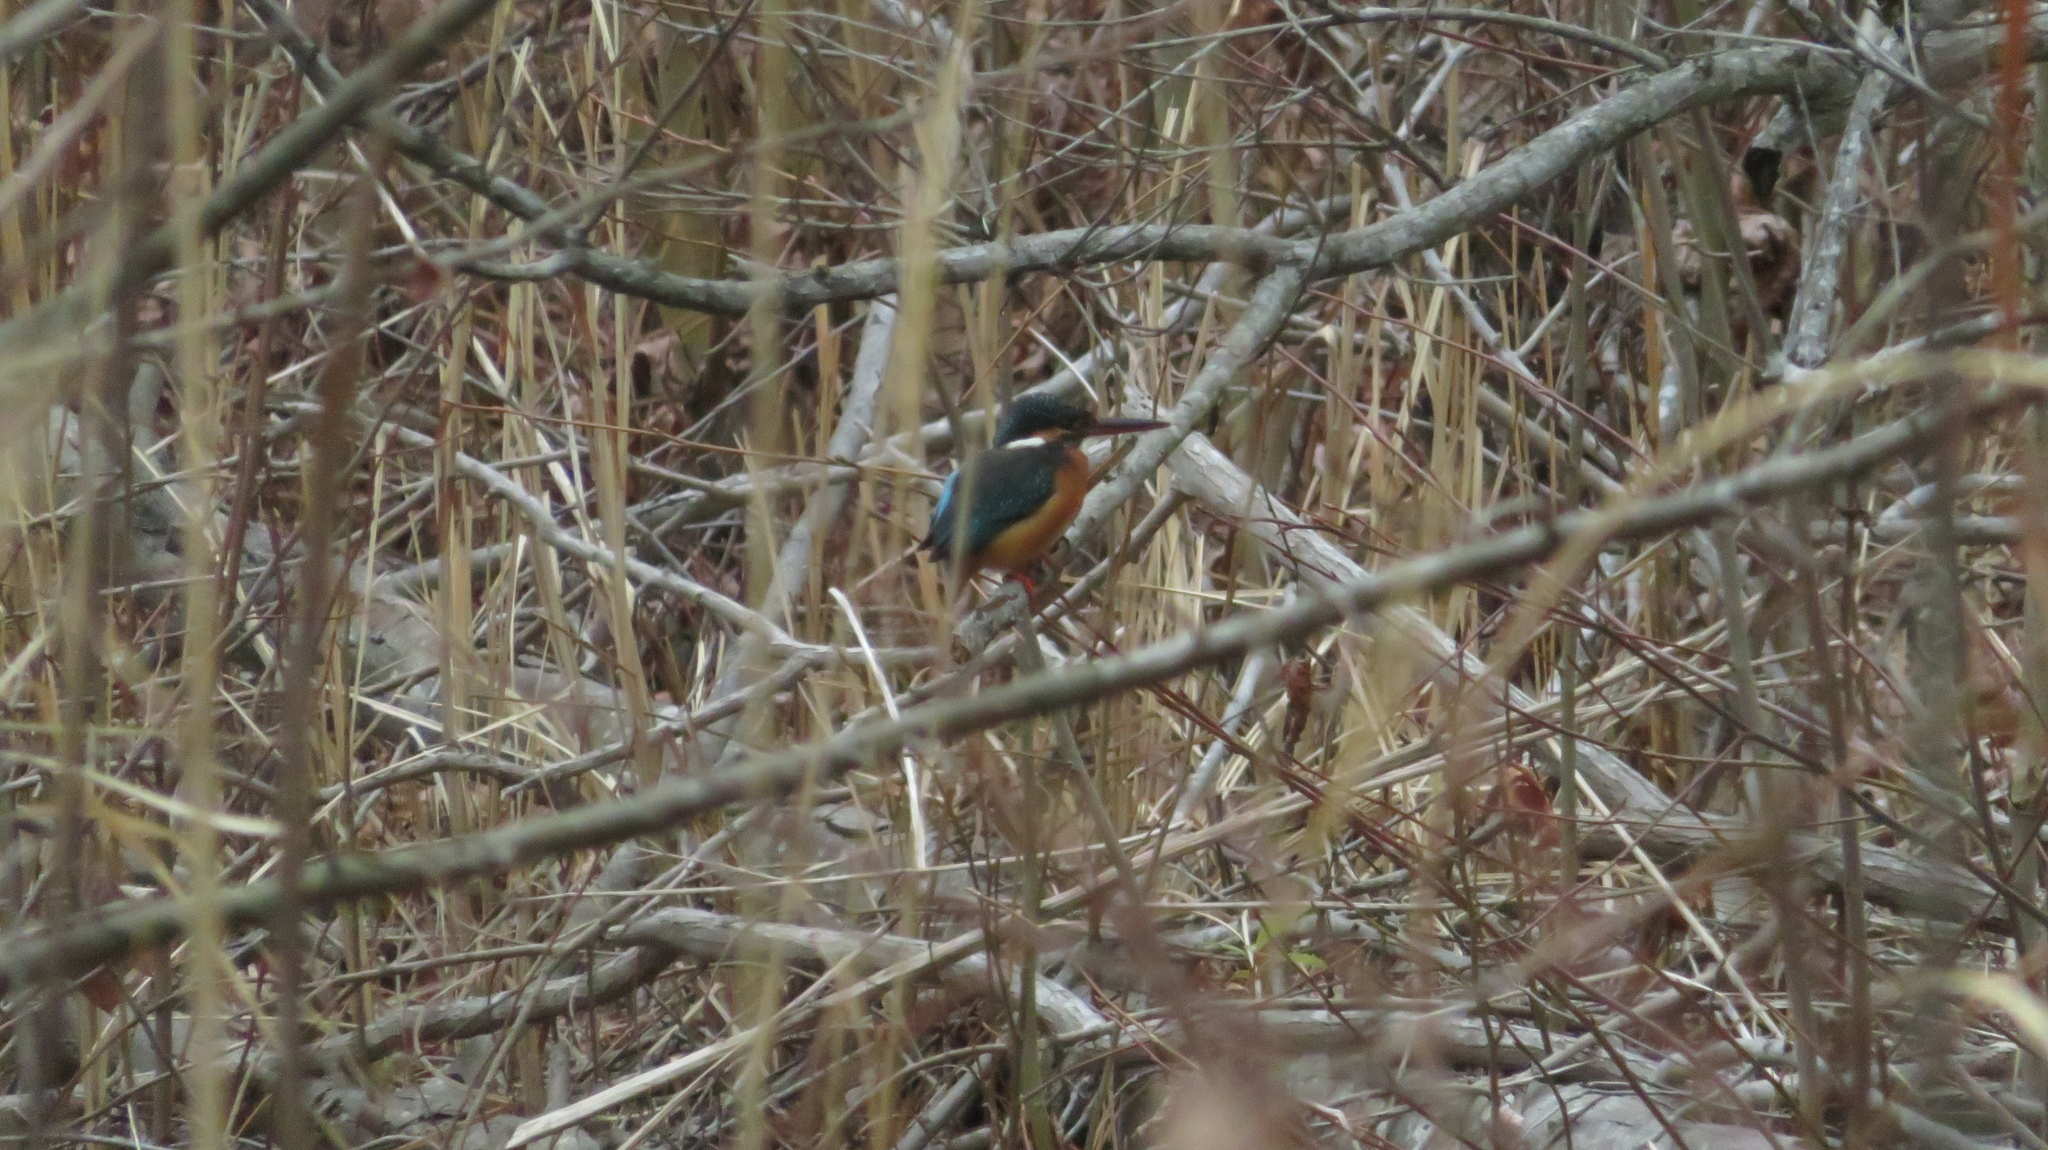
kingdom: Animalia
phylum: Chordata
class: Aves
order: Coraciiformes
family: Alcedinidae
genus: Alcedo
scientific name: Alcedo atthis
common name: Common kingfisher
